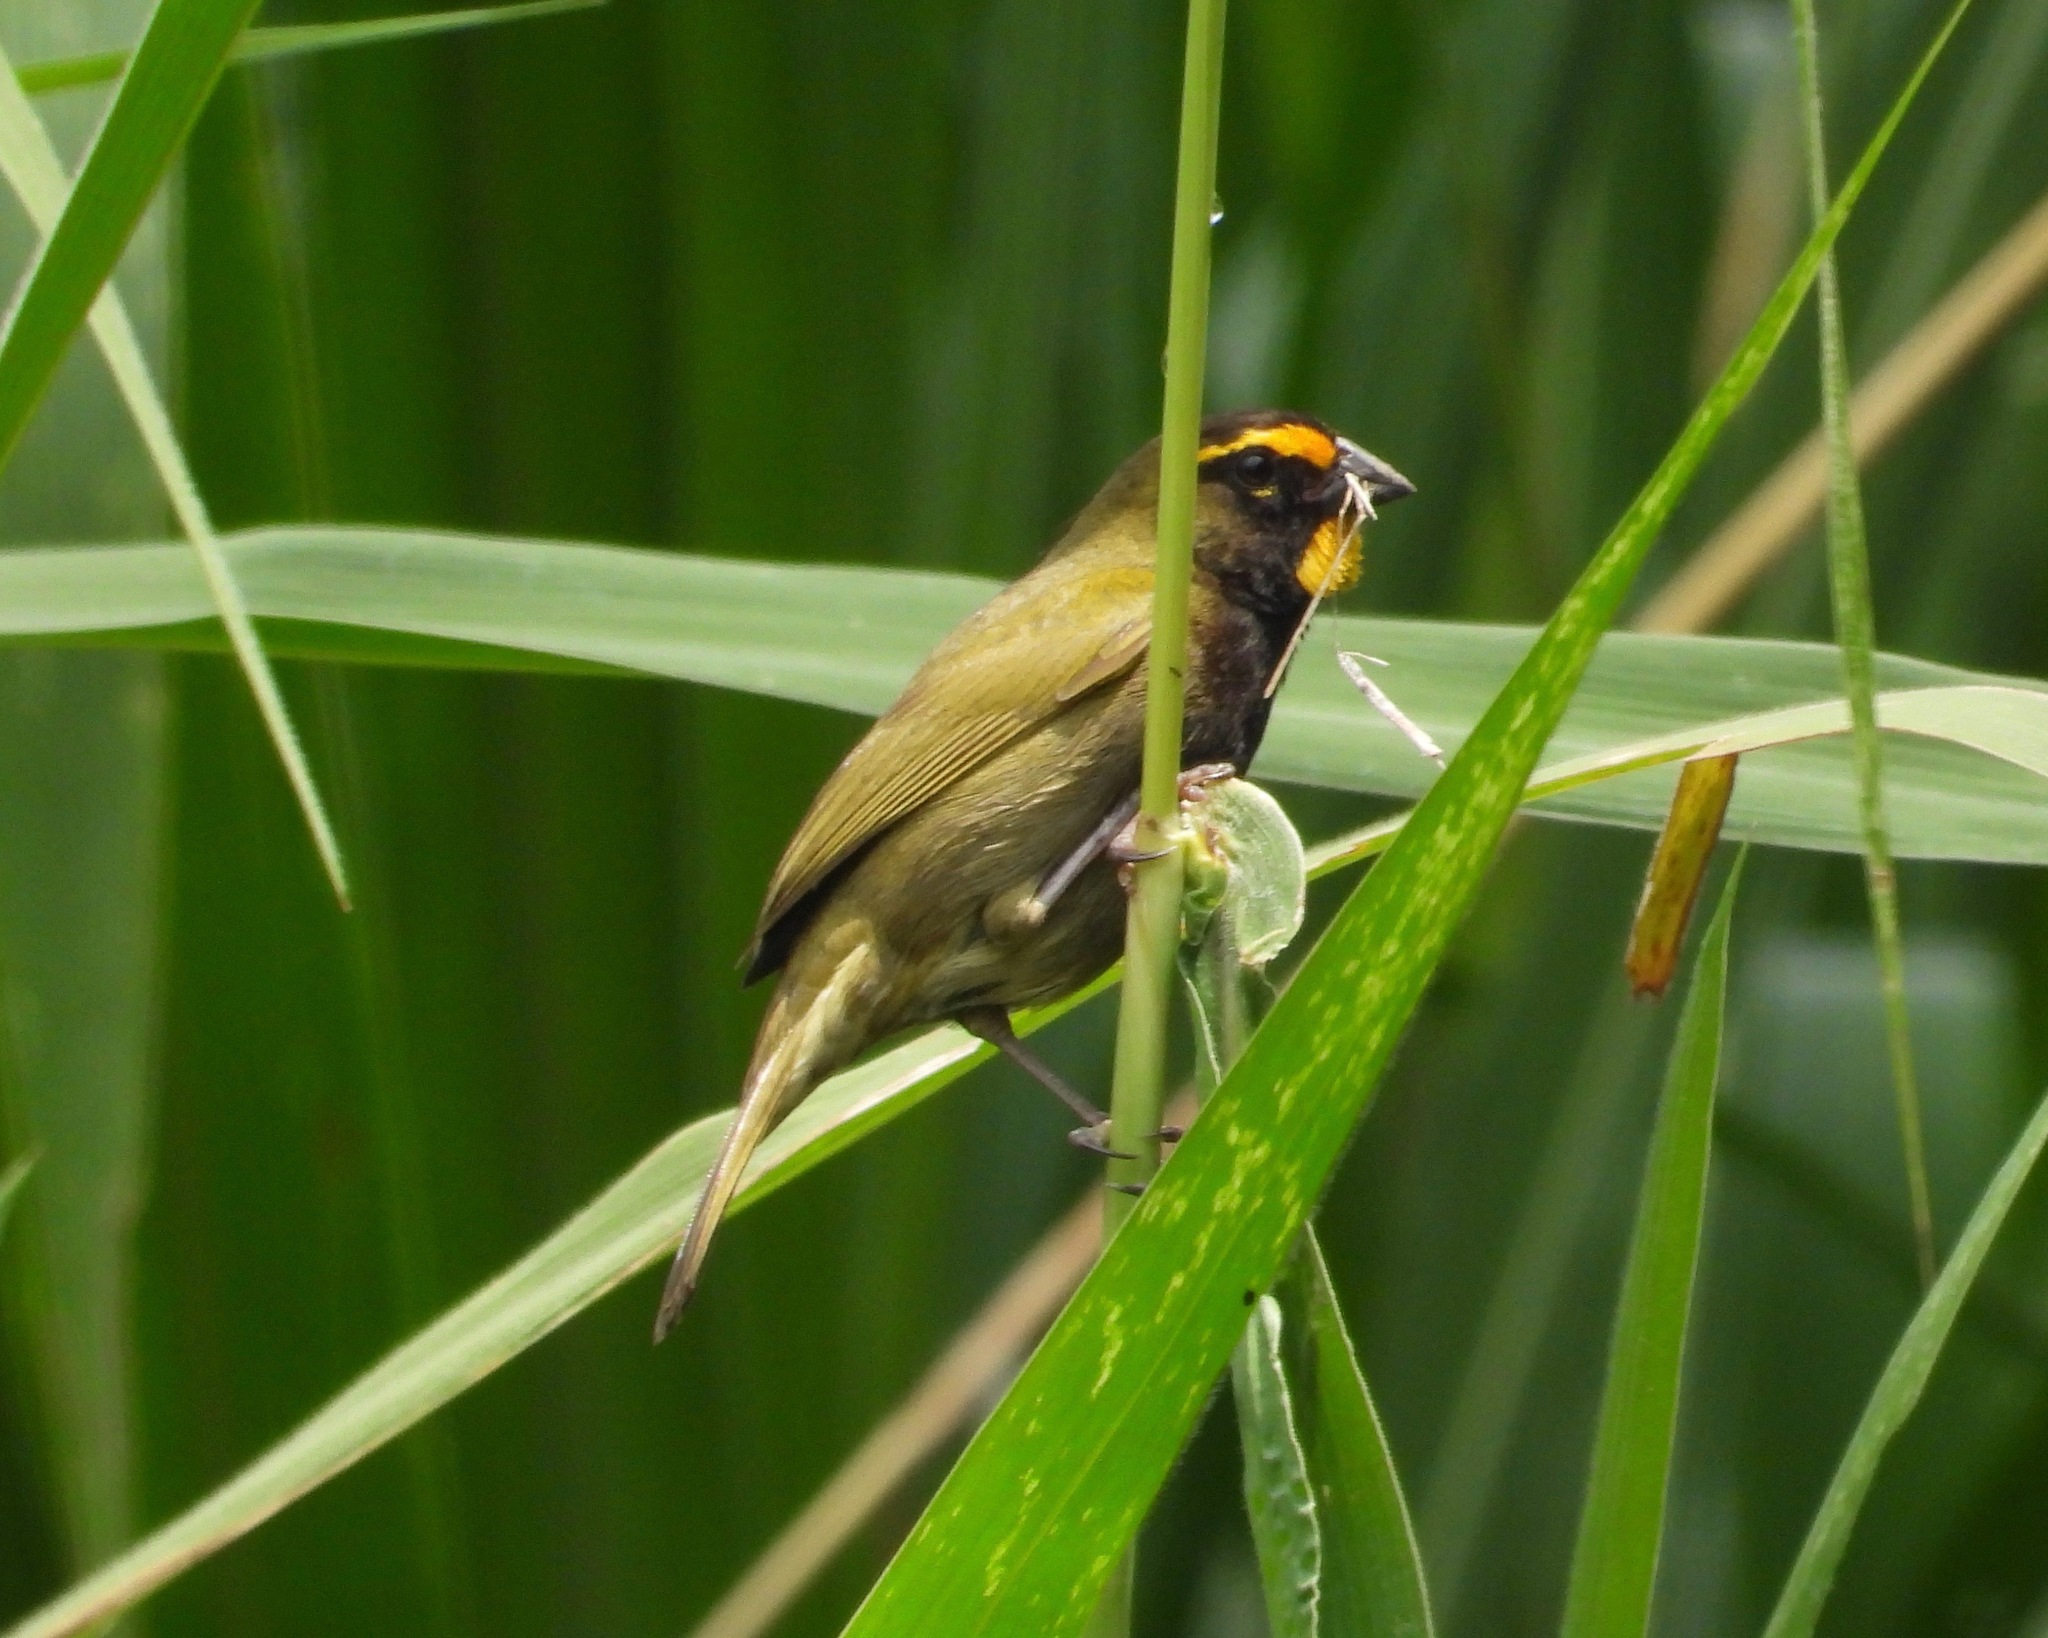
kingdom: Animalia
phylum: Chordata
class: Aves
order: Passeriformes
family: Thraupidae
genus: Tiaris
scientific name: Tiaris olivaceus
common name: Yellow-faced grassquit
